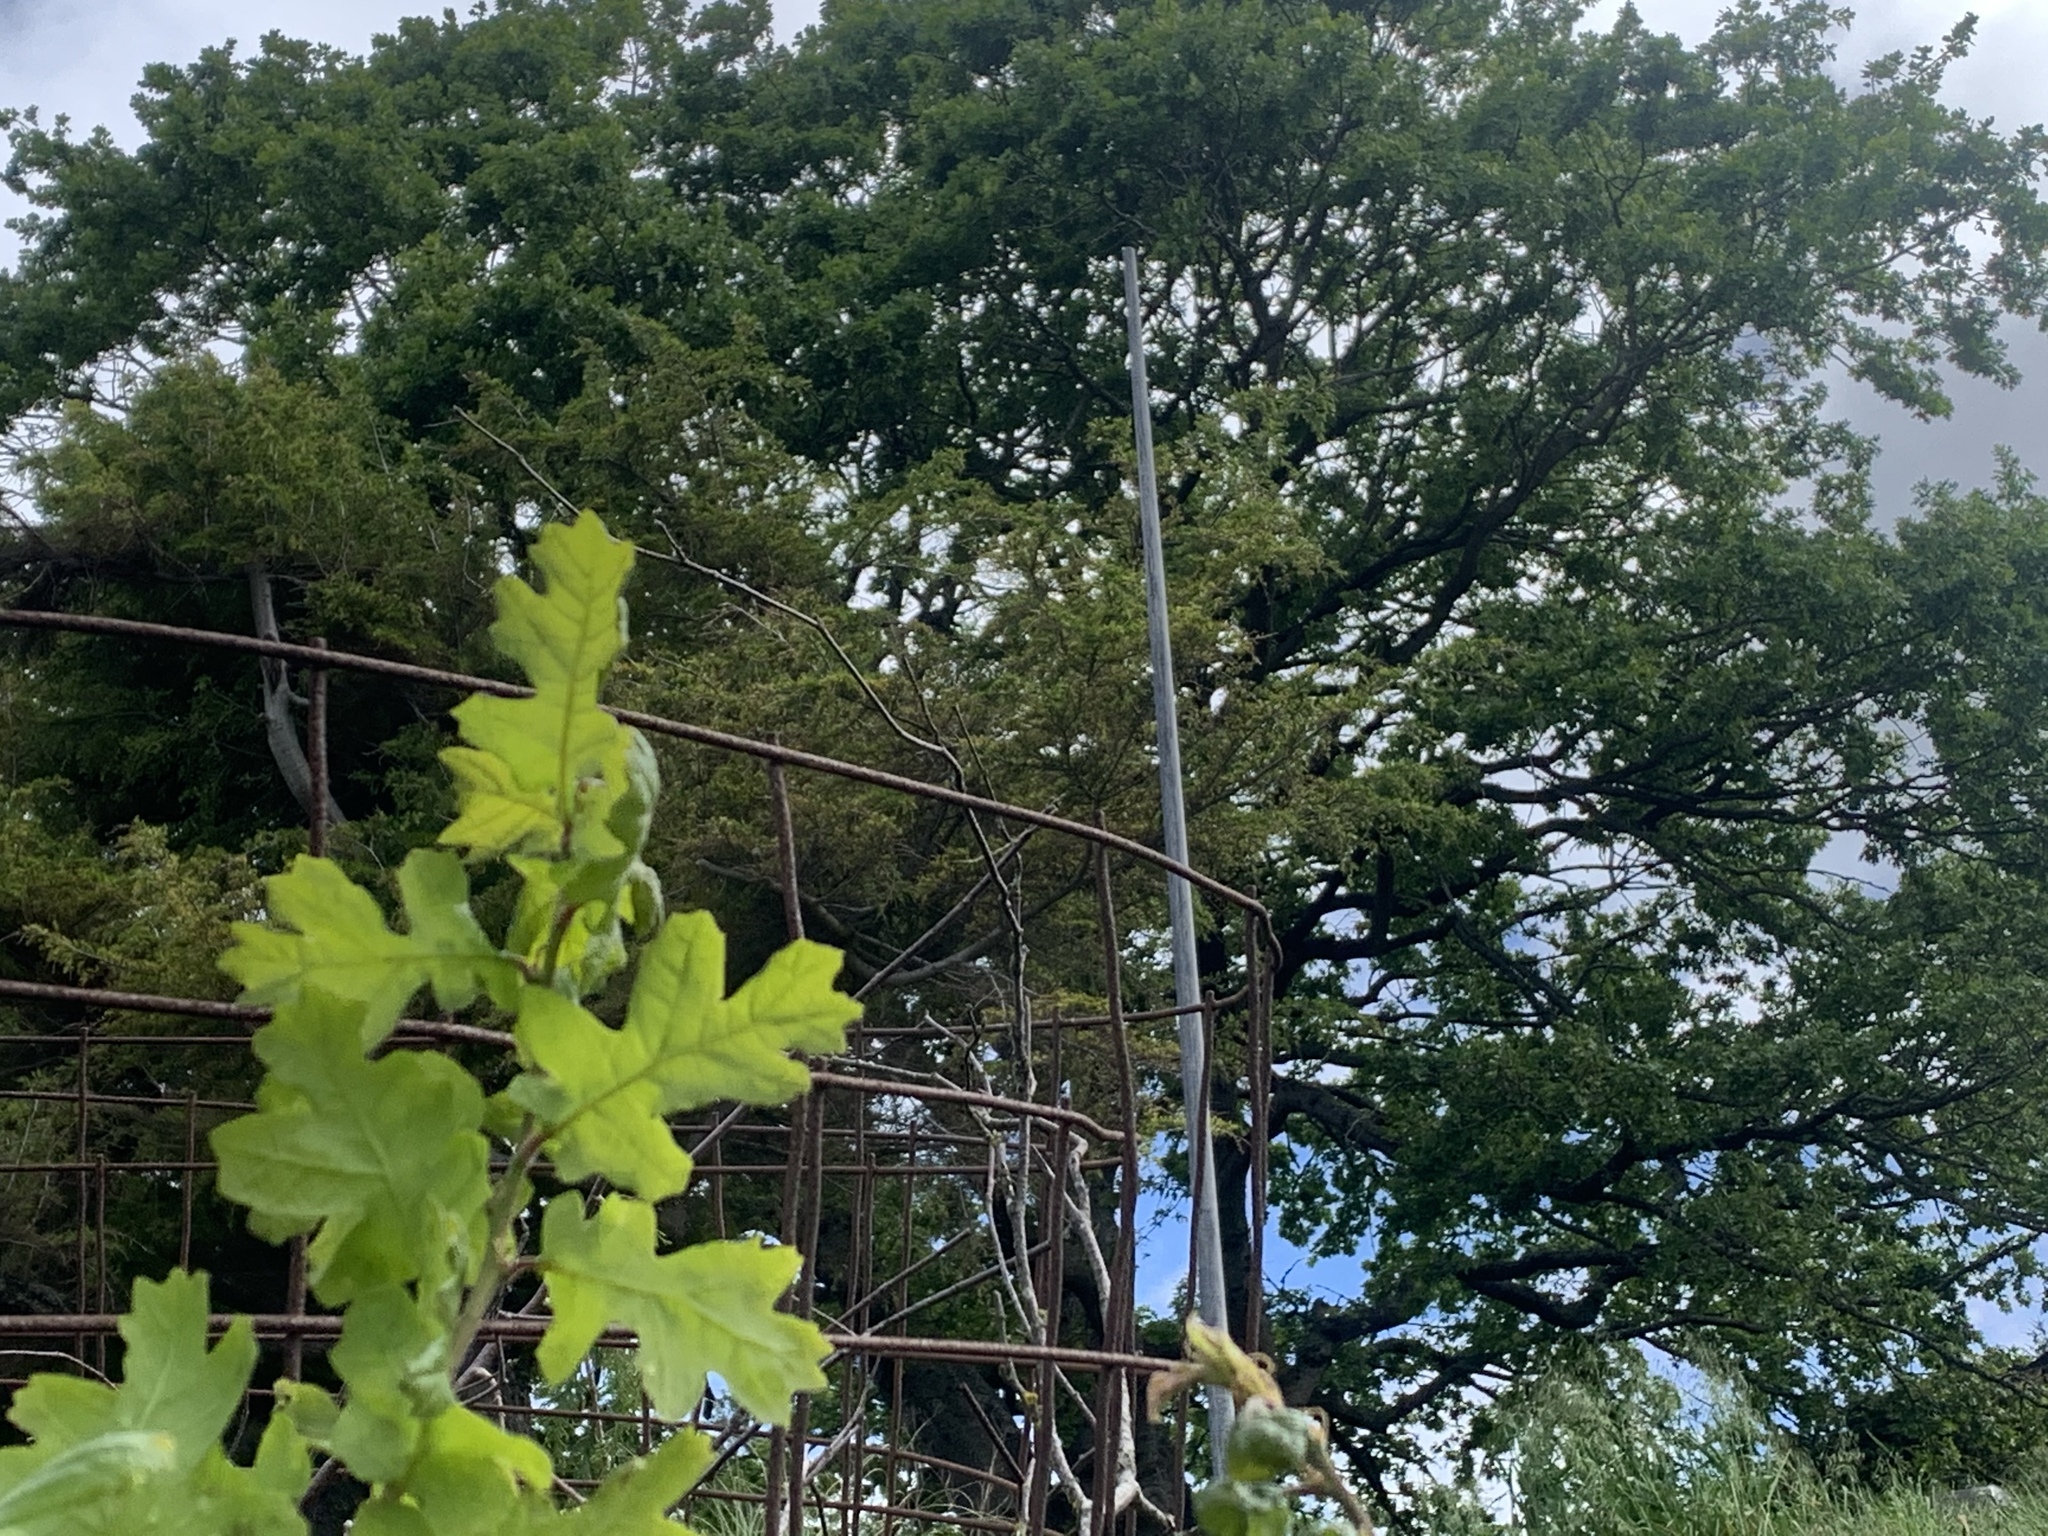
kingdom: Plantae
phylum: Tracheophyta
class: Magnoliopsida
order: Fagales
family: Fagaceae
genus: Quercus
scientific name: Quercus garryana
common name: Garry oak
